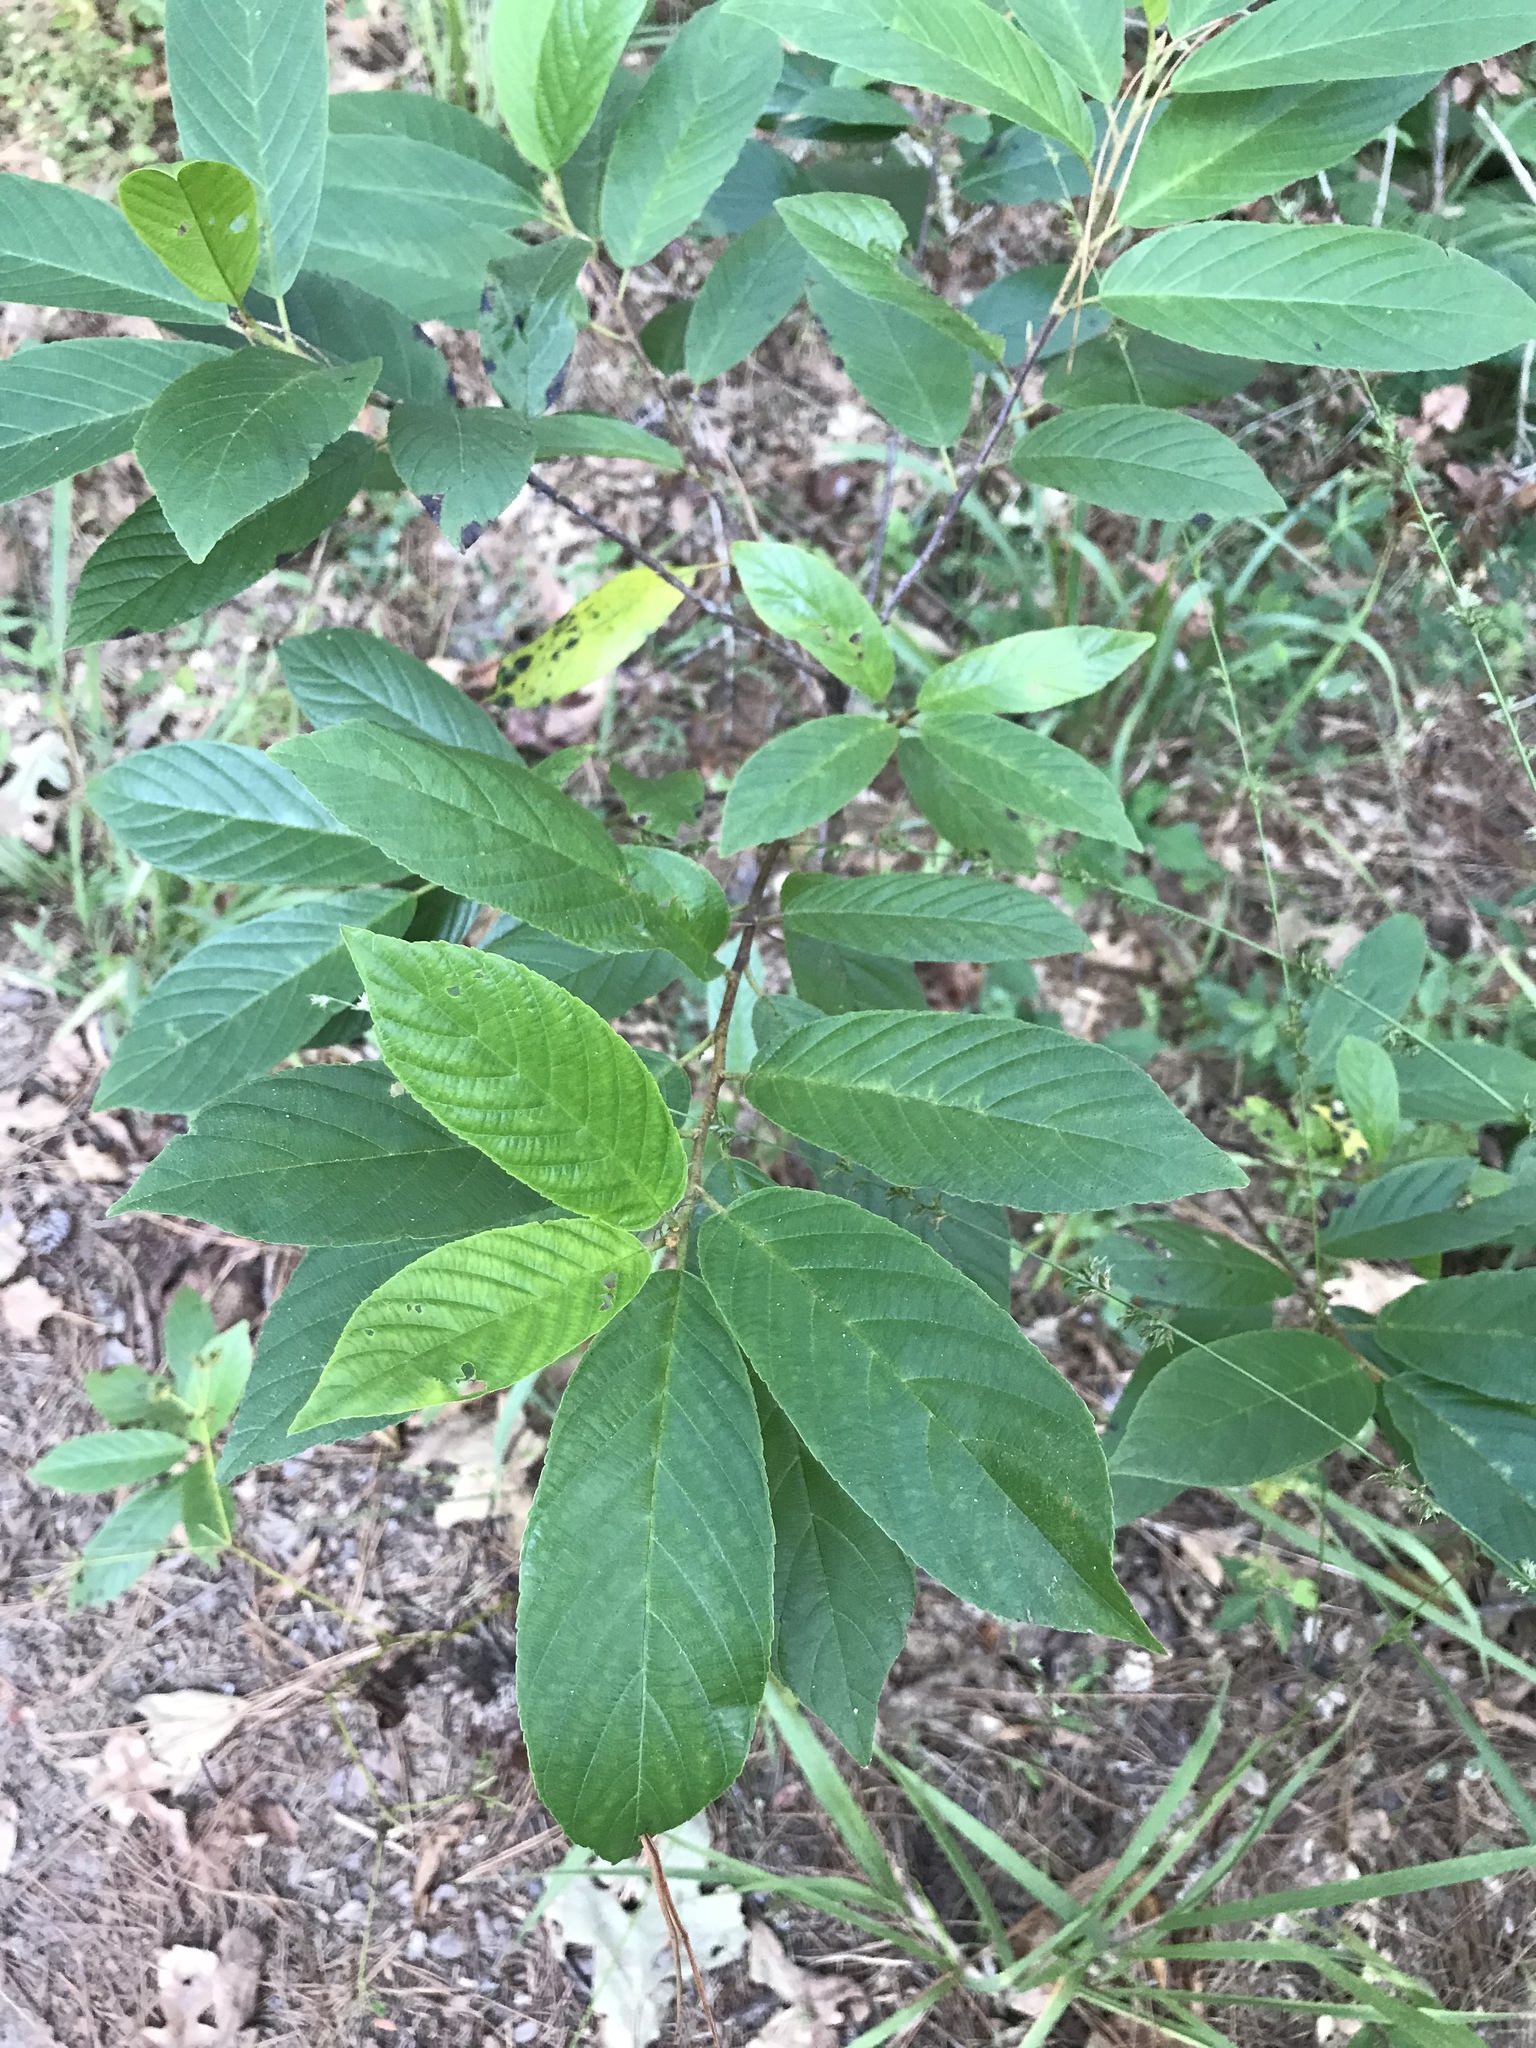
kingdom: Plantae
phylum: Tracheophyta
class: Magnoliopsida
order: Rosales
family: Rhamnaceae
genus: Frangula
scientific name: Frangula caroliniana
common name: Carolina buckthorn
